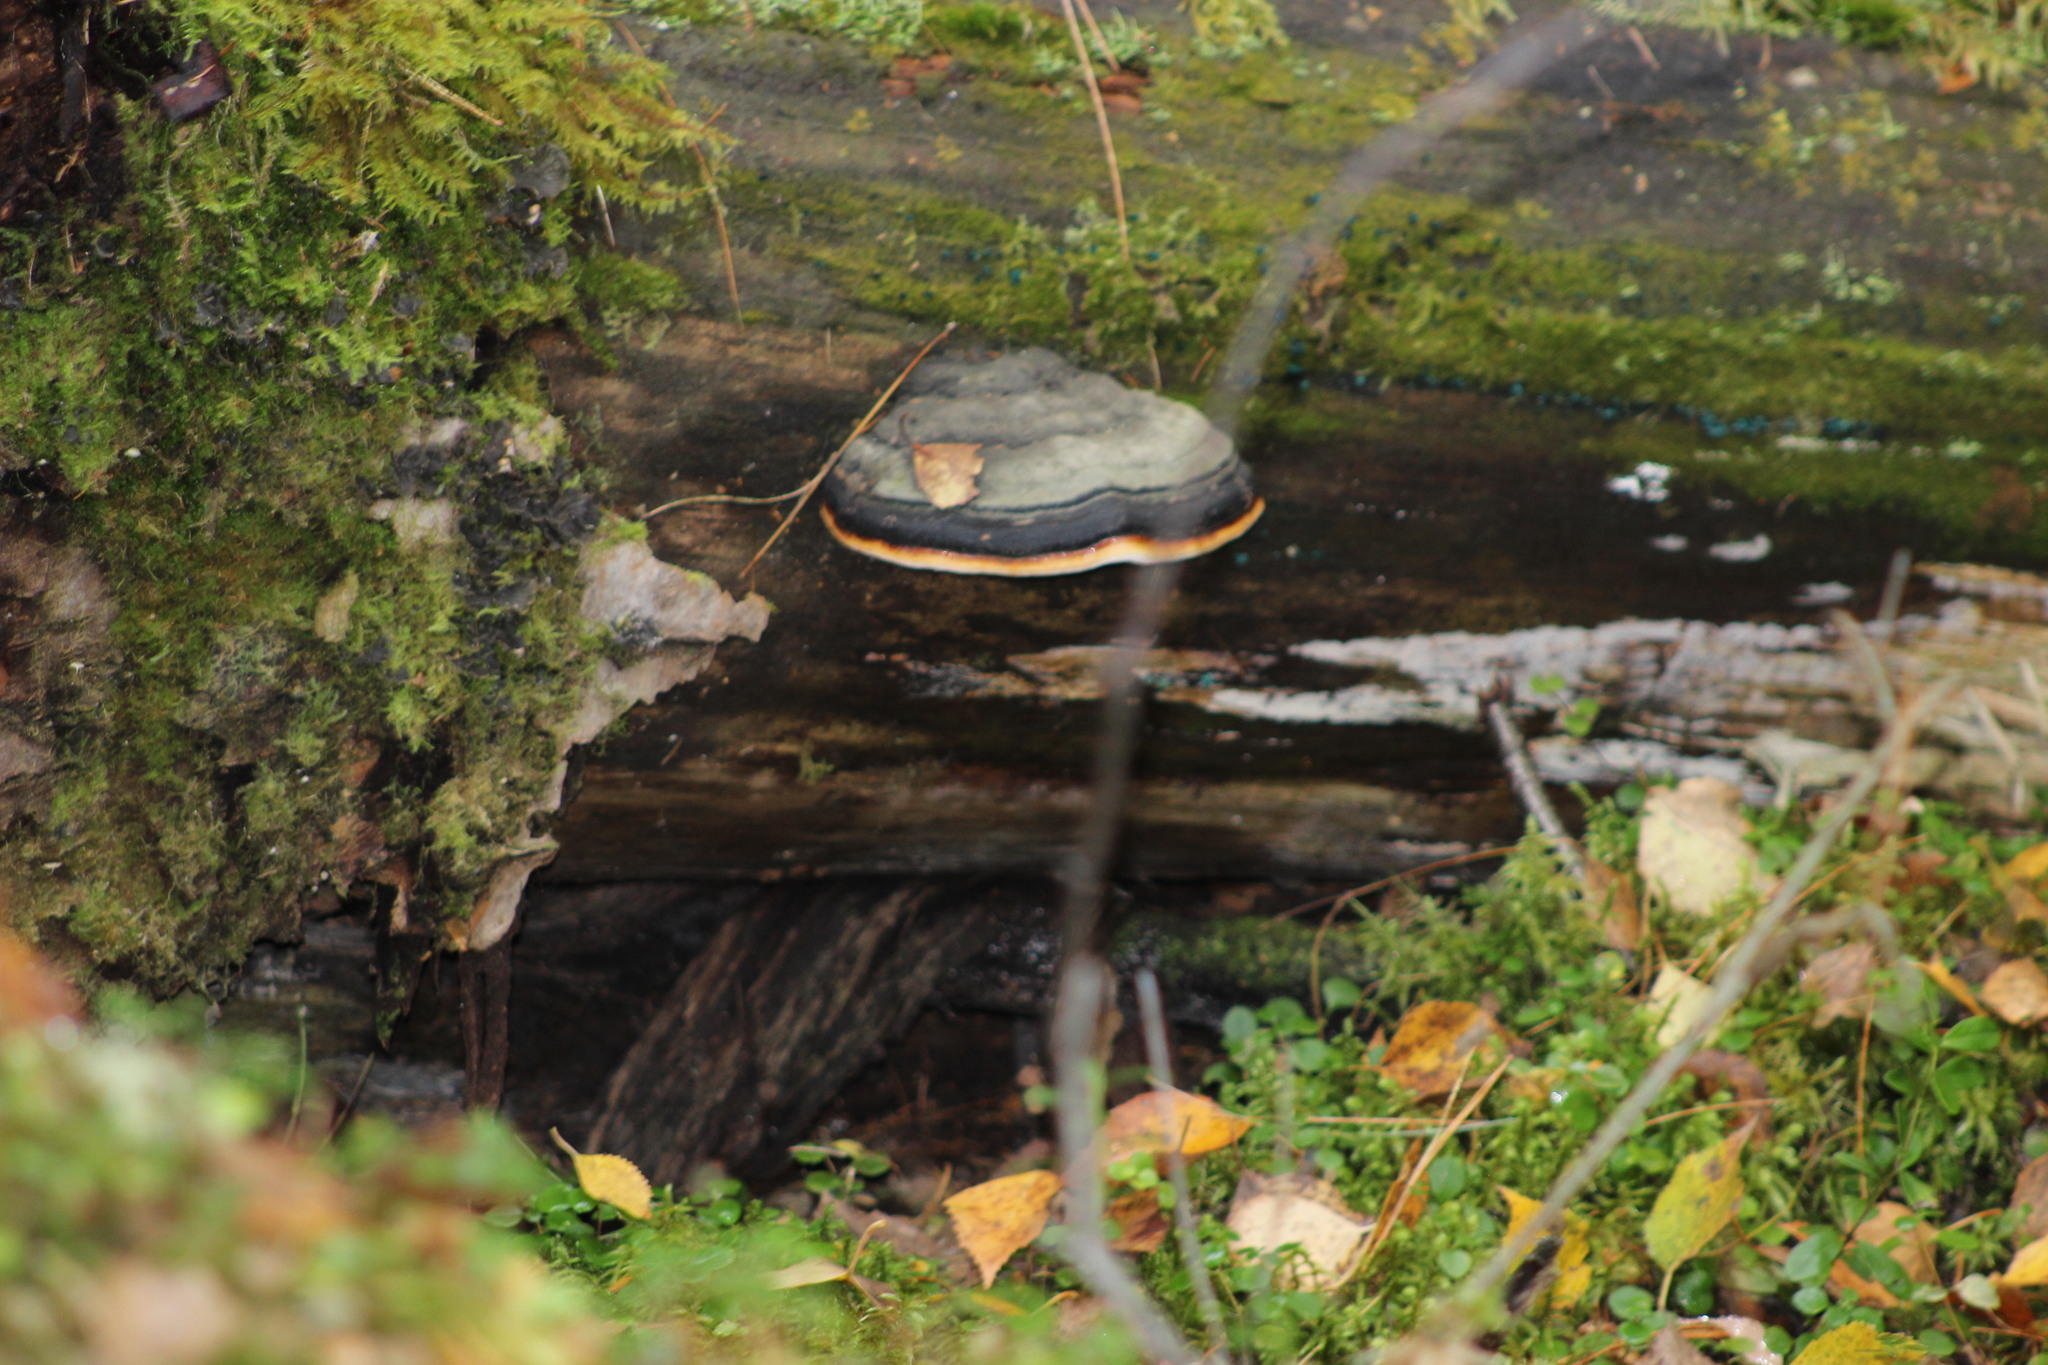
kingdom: Fungi
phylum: Basidiomycota
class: Agaricomycetes
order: Polyporales
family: Fomitopsidaceae
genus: Fomitopsis
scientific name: Fomitopsis pinicola
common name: Red-belted bracket
